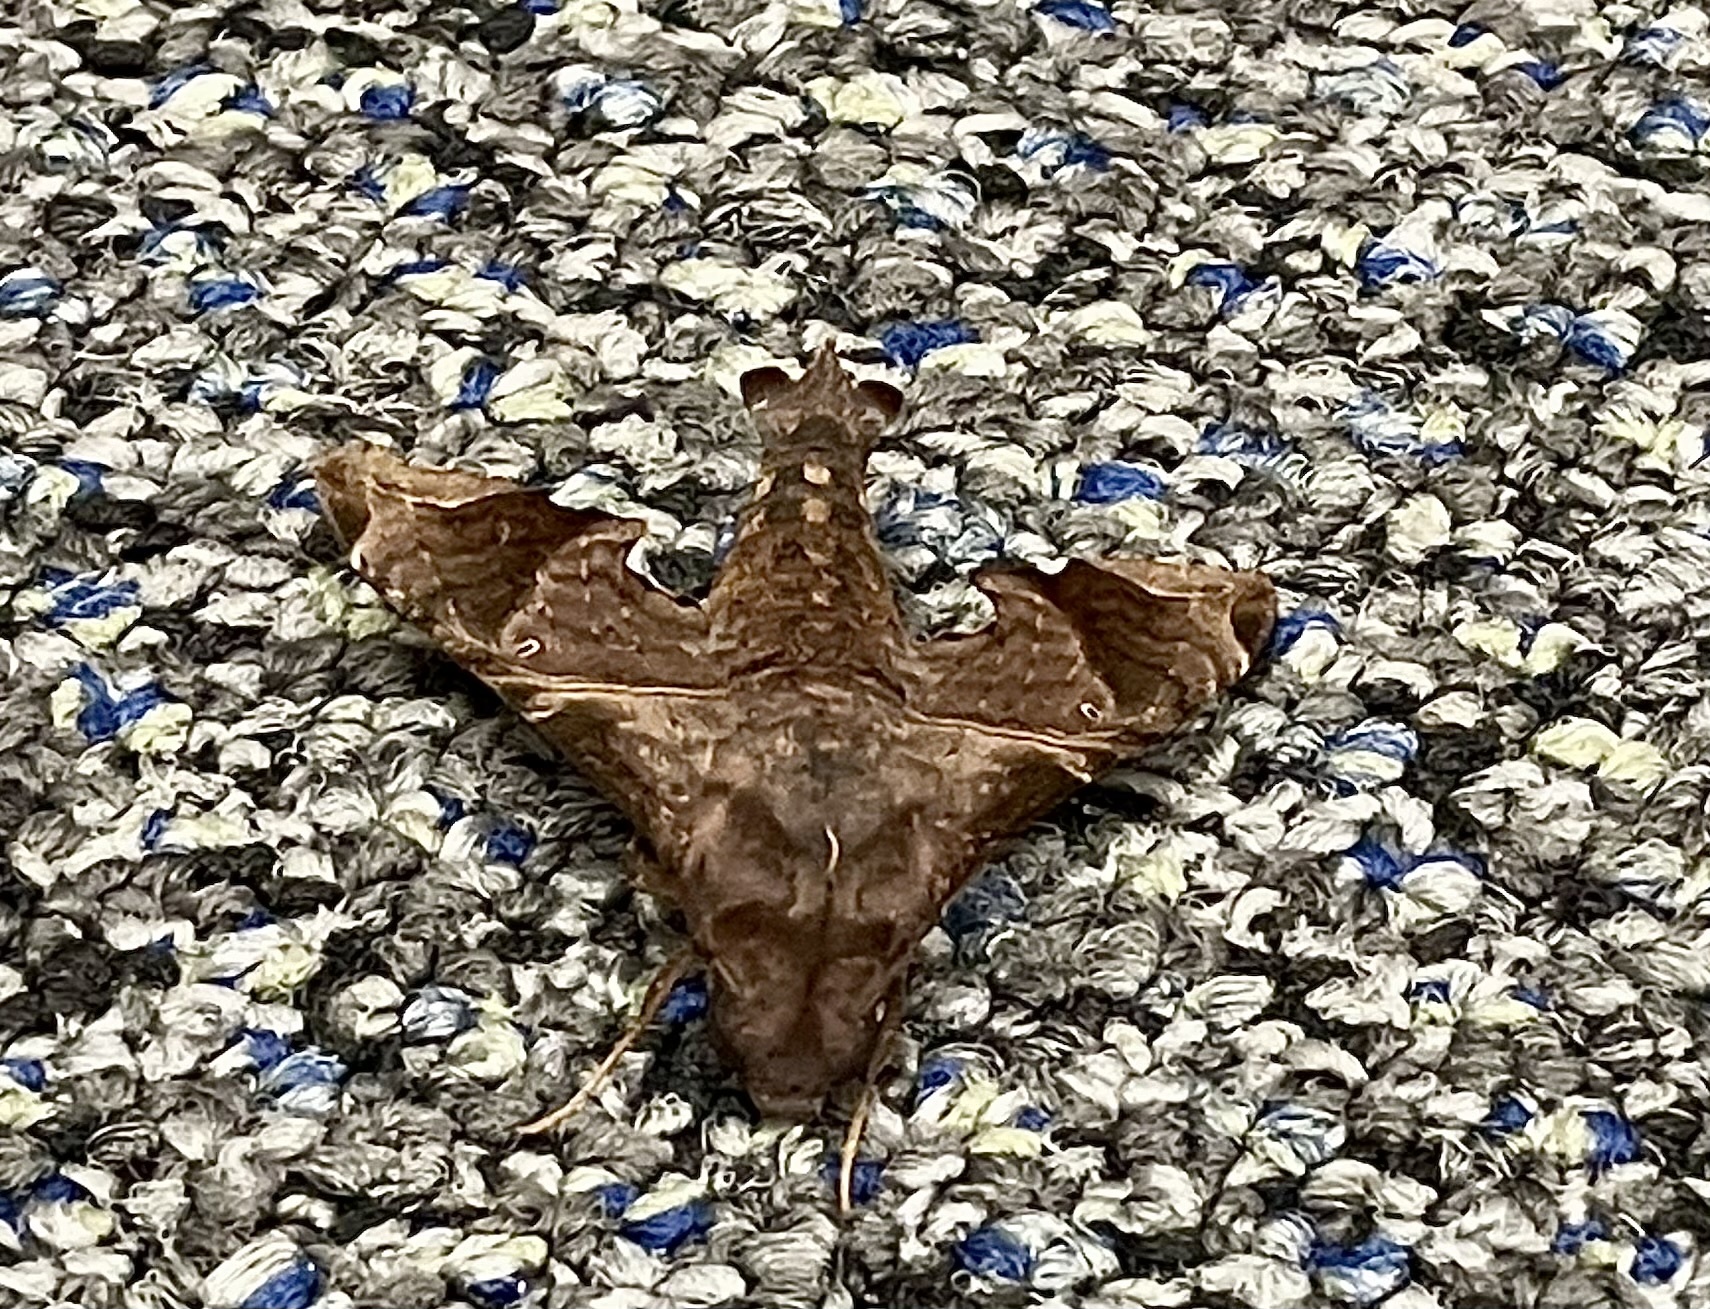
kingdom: Animalia
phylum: Arthropoda
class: Insecta
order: Lepidoptera
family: Sphingidae
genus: Enyo
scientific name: Enyo lugubris
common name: Mournful sphinx
